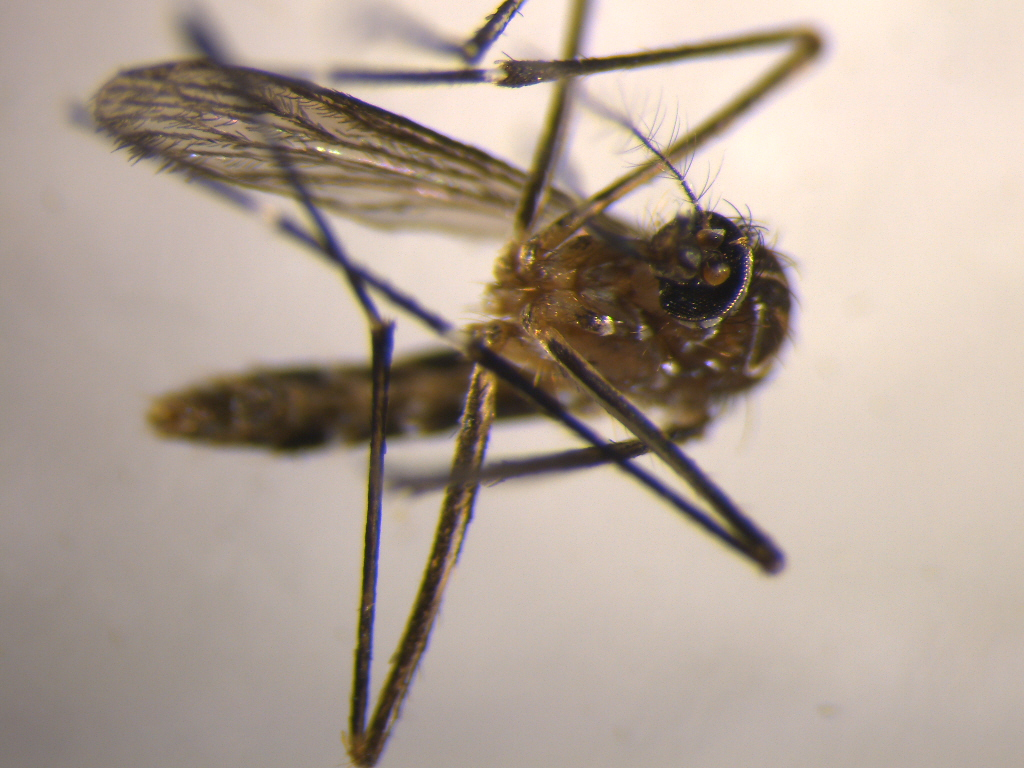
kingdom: Animalia
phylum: Arthropoda
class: Insecta
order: Diptera
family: Culicidae
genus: Aedes
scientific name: Aedes notoscriptus
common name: Australian backyard mosquito
